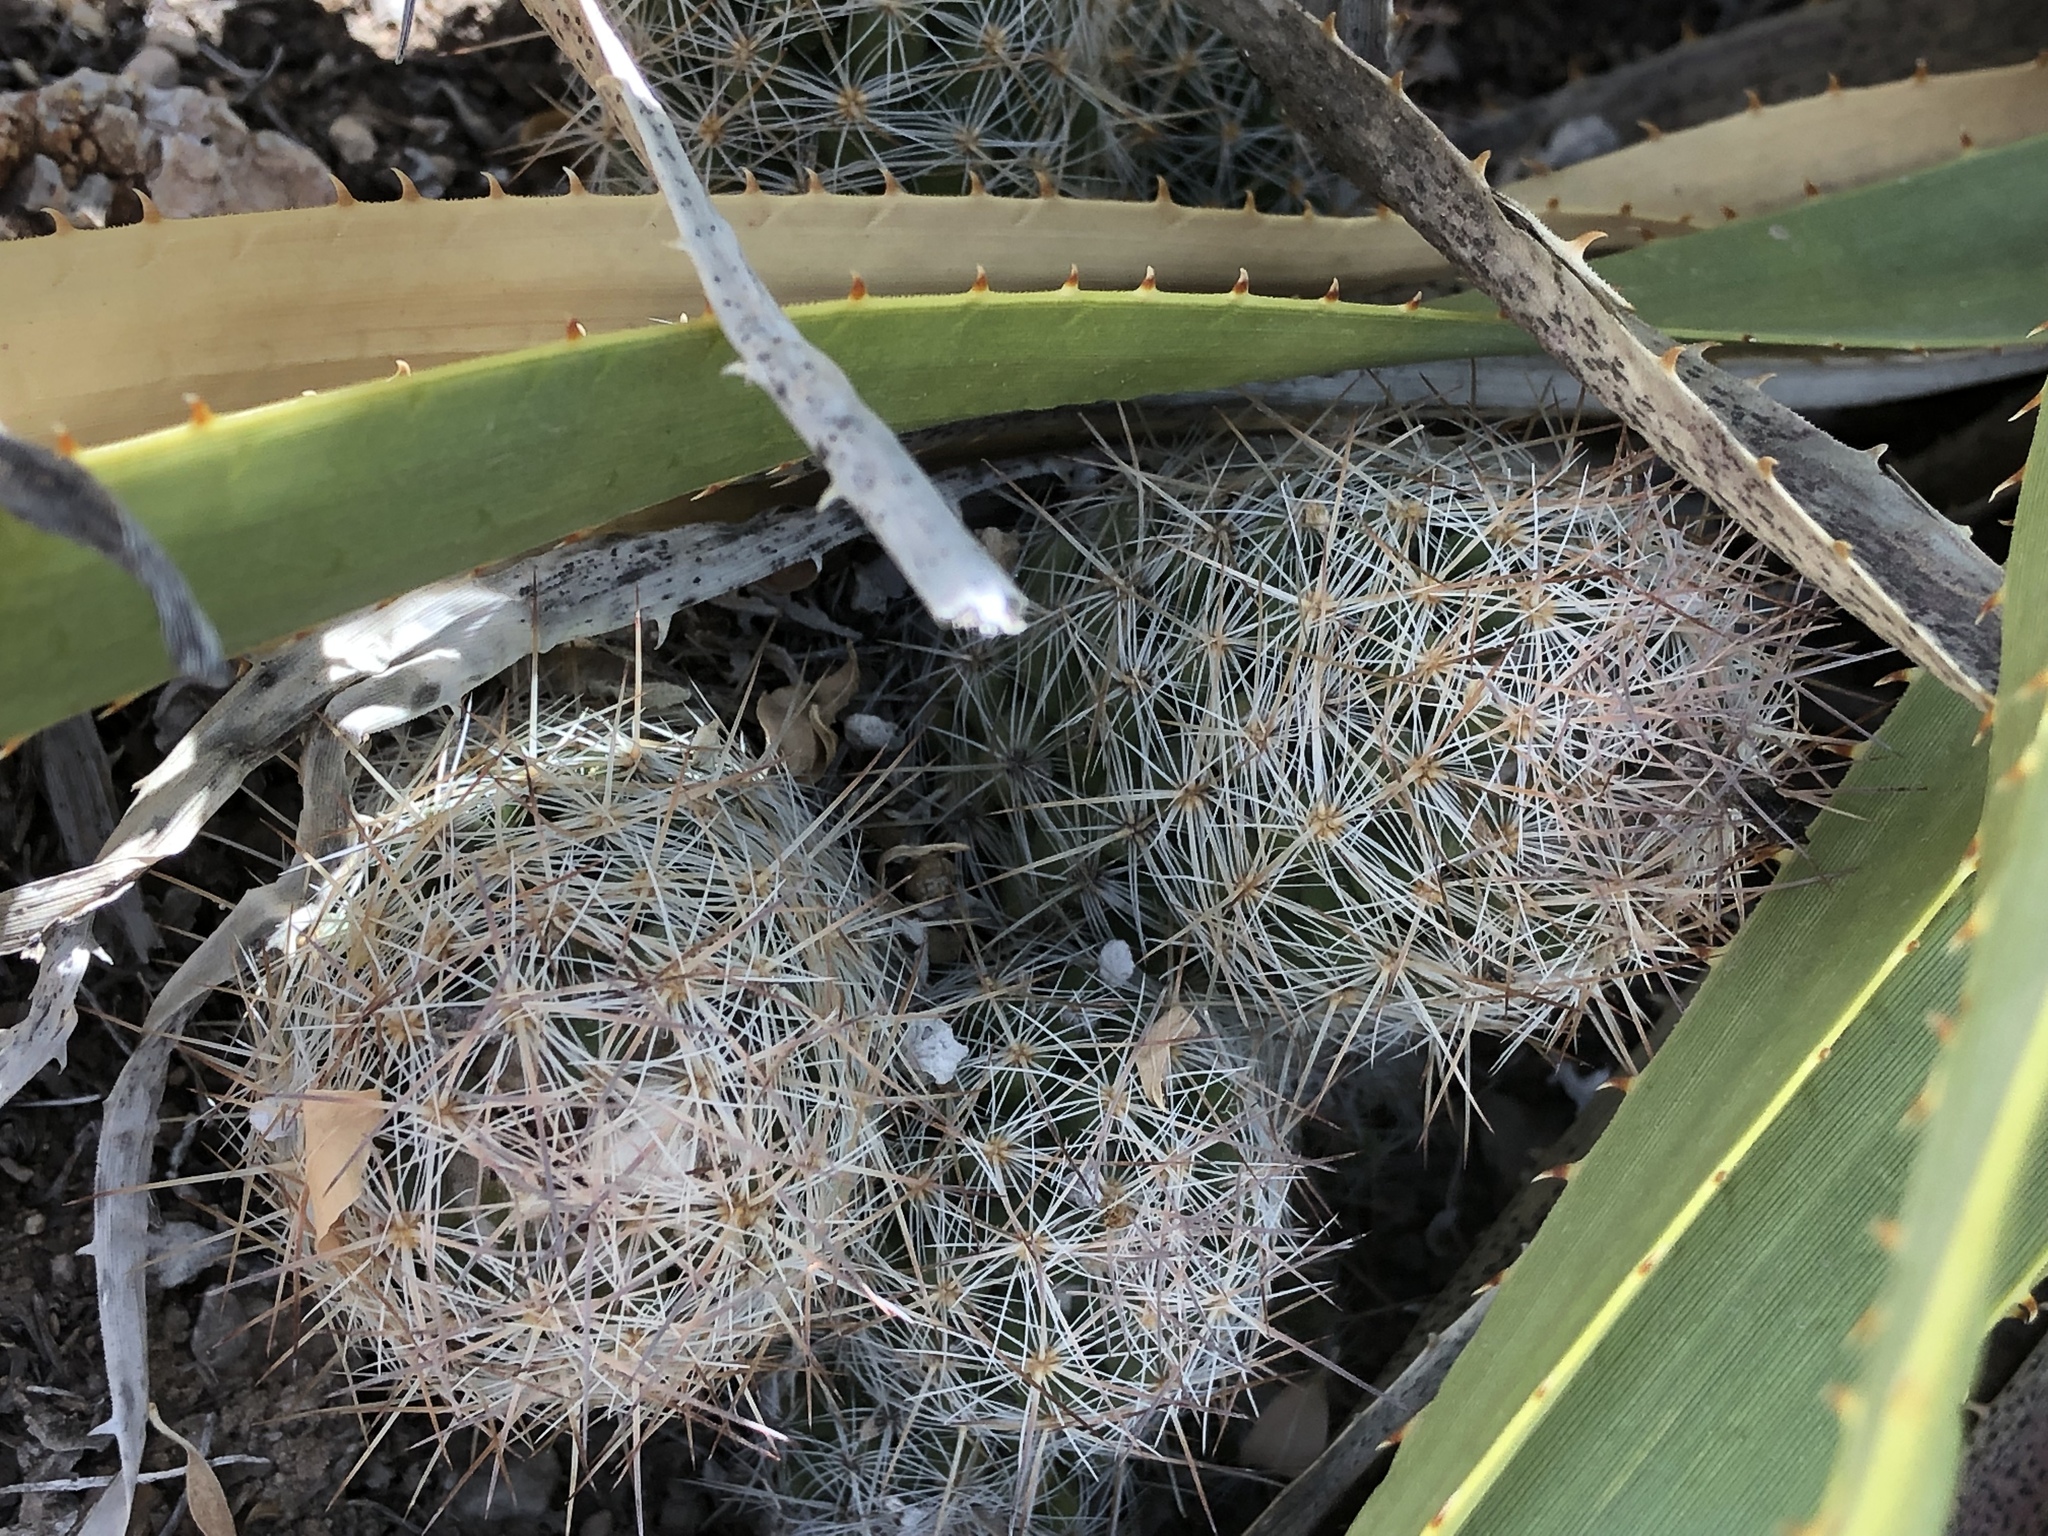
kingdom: Plantae
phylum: Tracheophyta
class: Magnoliopsida
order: Caryophyllales
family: Cactaceae
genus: Pelecyphora
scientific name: Pelecyphora sneedii
